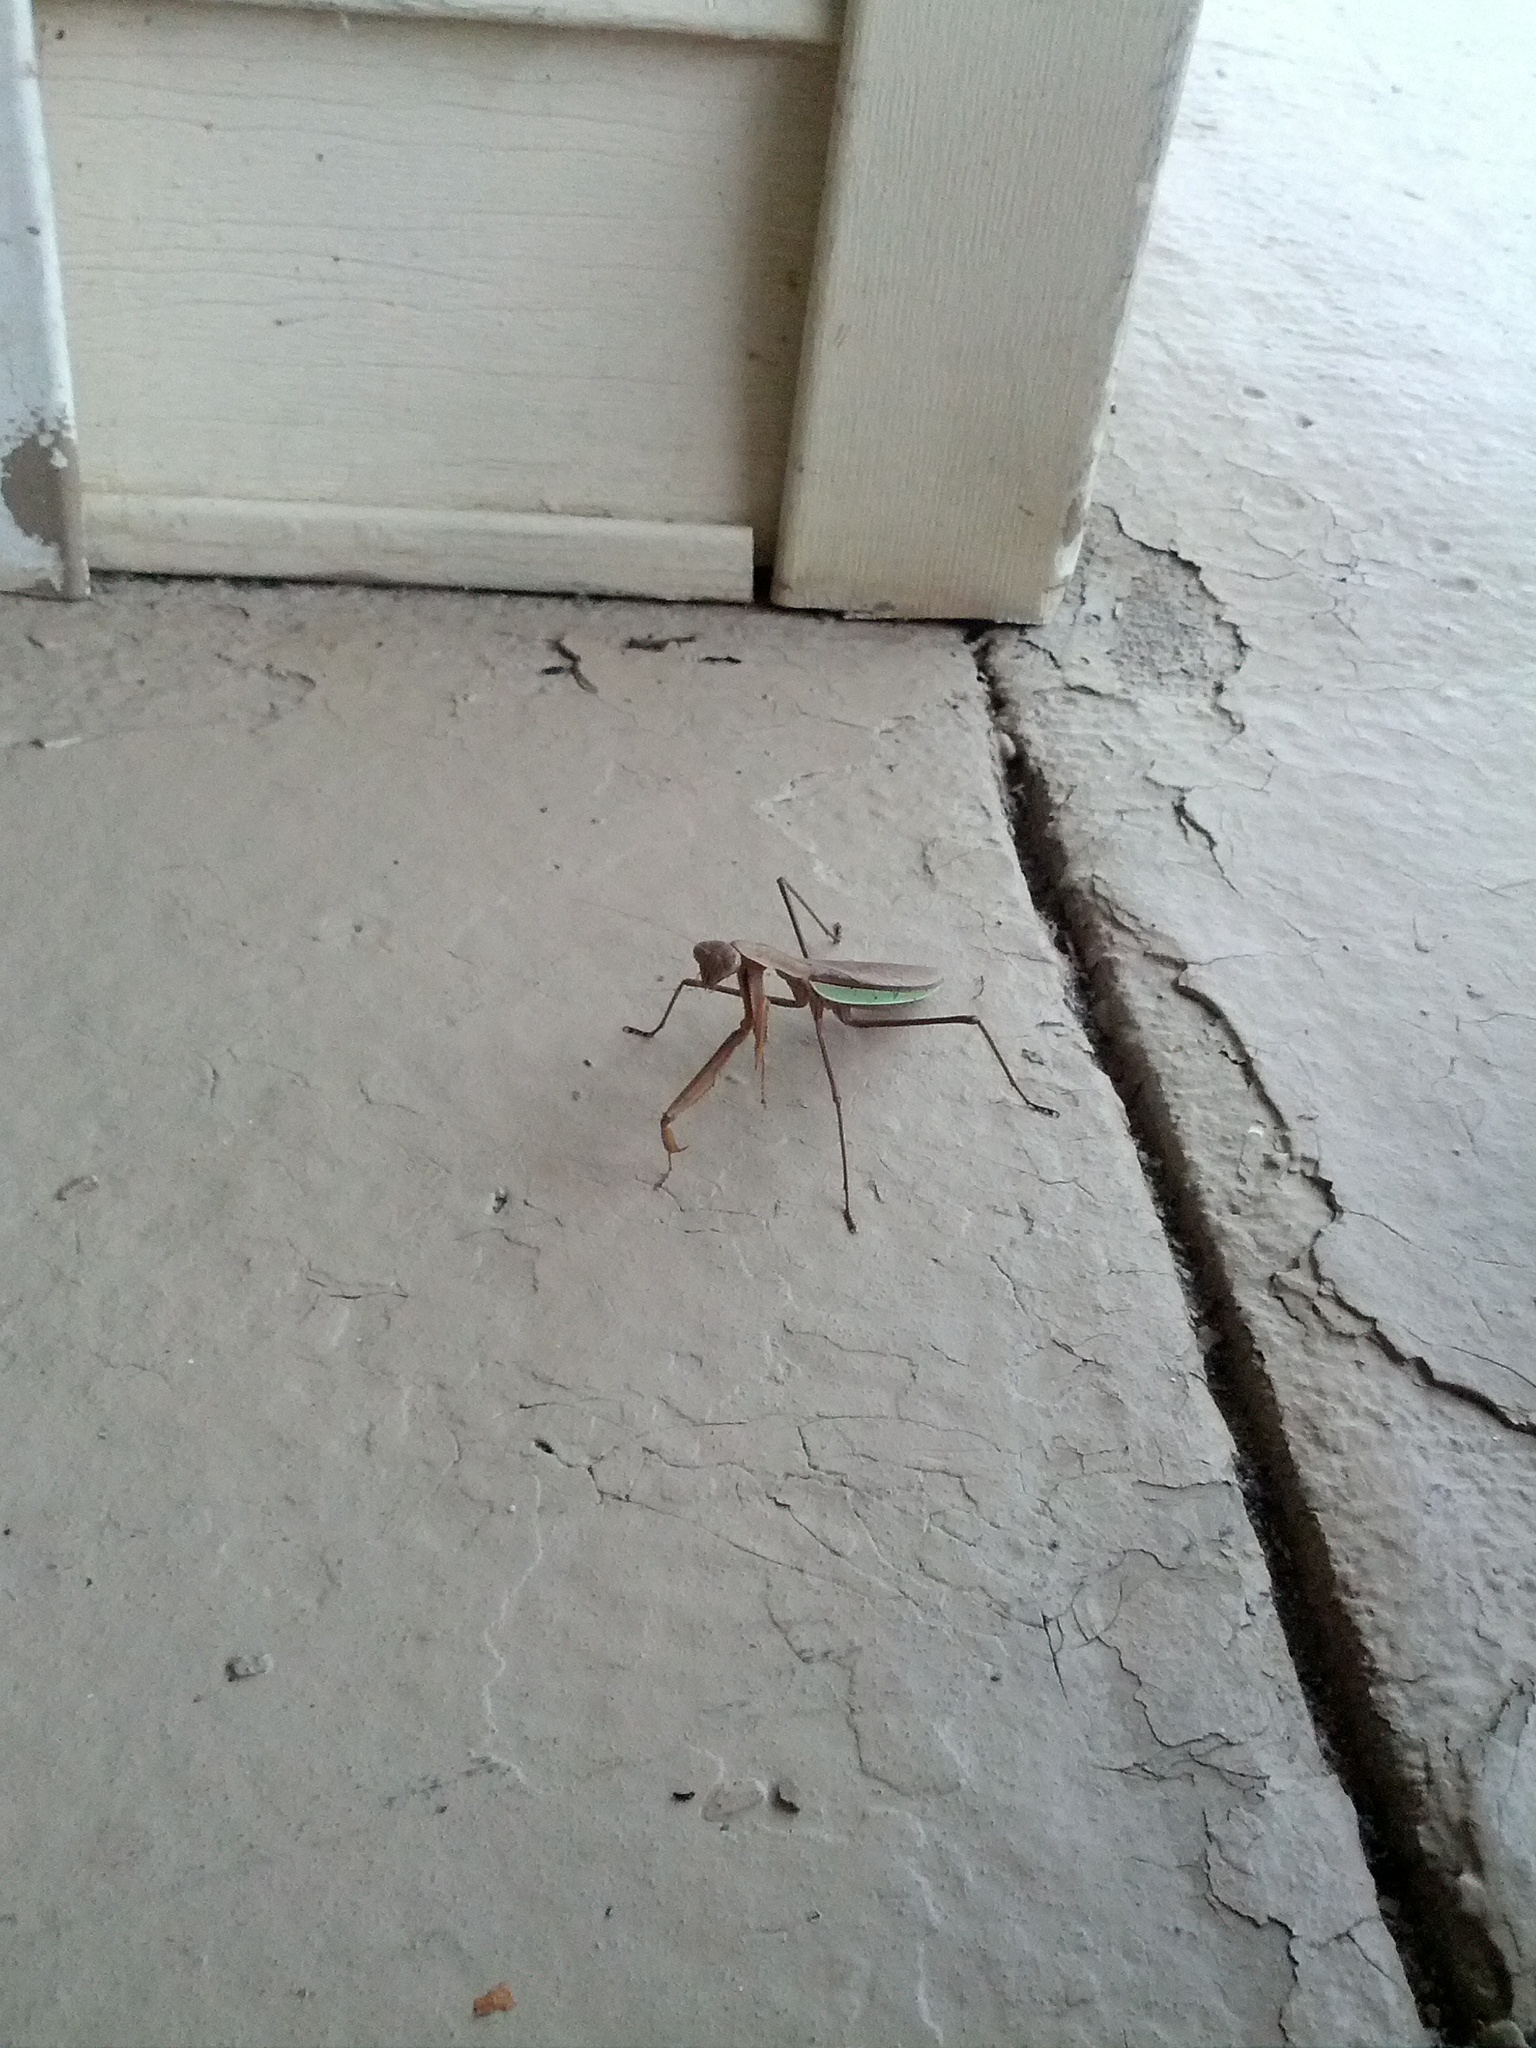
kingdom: Animalia
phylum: Arthropoda
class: Insecta
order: Mantodea
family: Mantidae
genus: Tenodera
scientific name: Tenodera sinensis
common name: Chinese mantis
